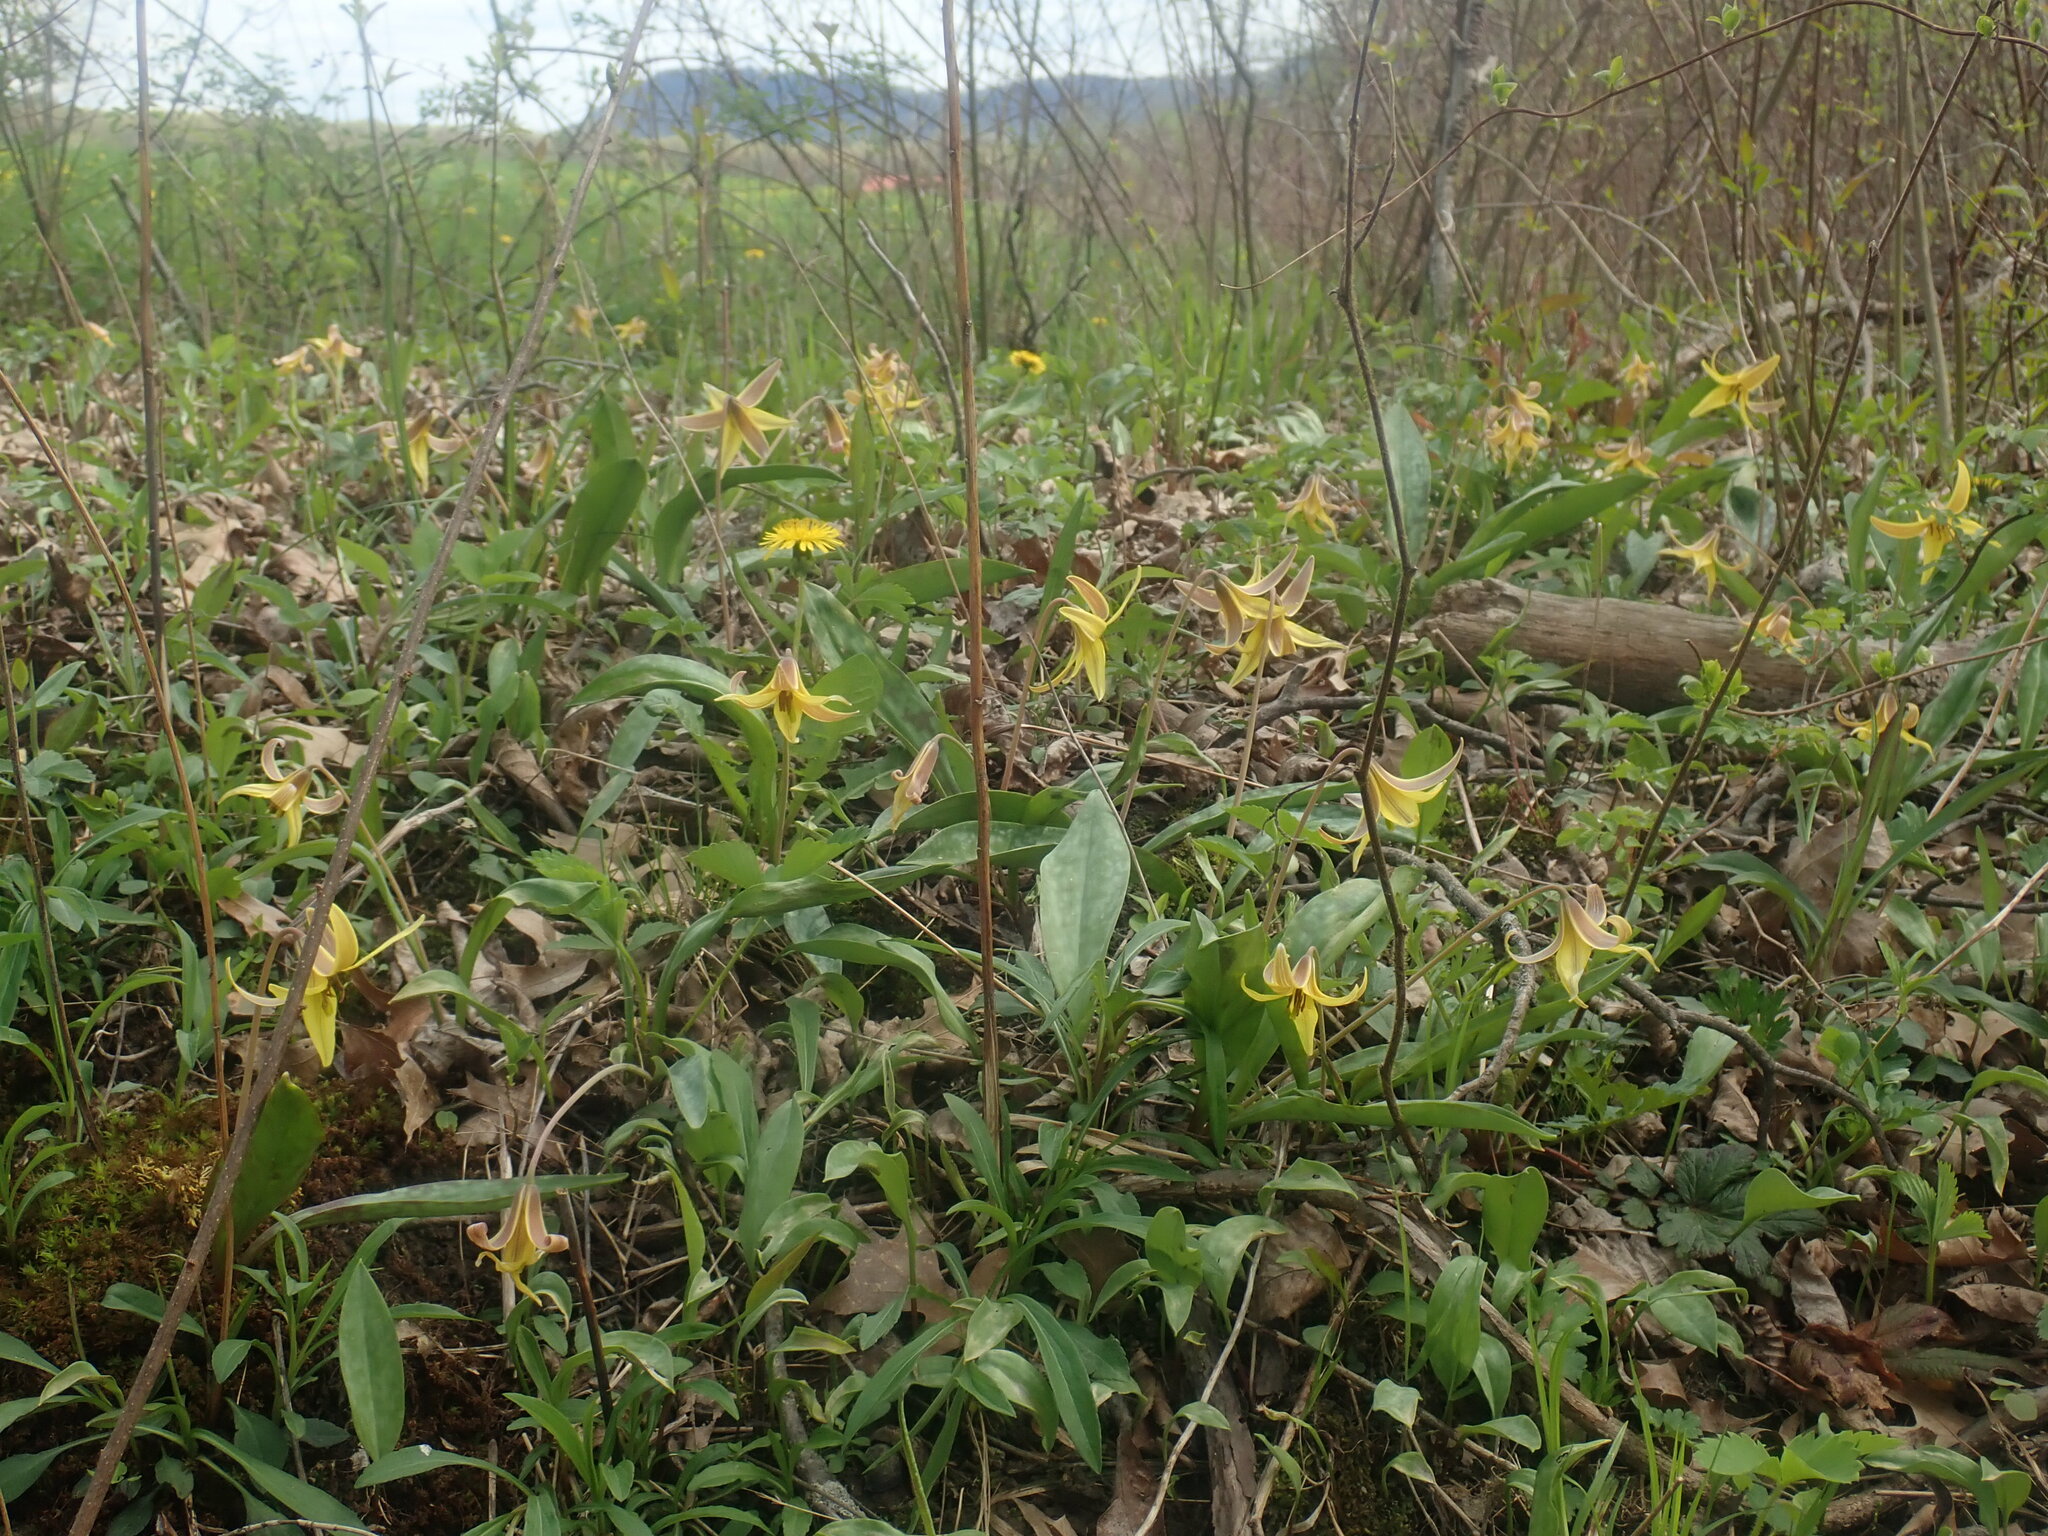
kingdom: Plantae
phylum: Tracheophyta
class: Liliopsida
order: Liliales
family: Liliaceae
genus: Erythronium
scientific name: Erythronium americanum
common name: Yellow adder's-tongue
